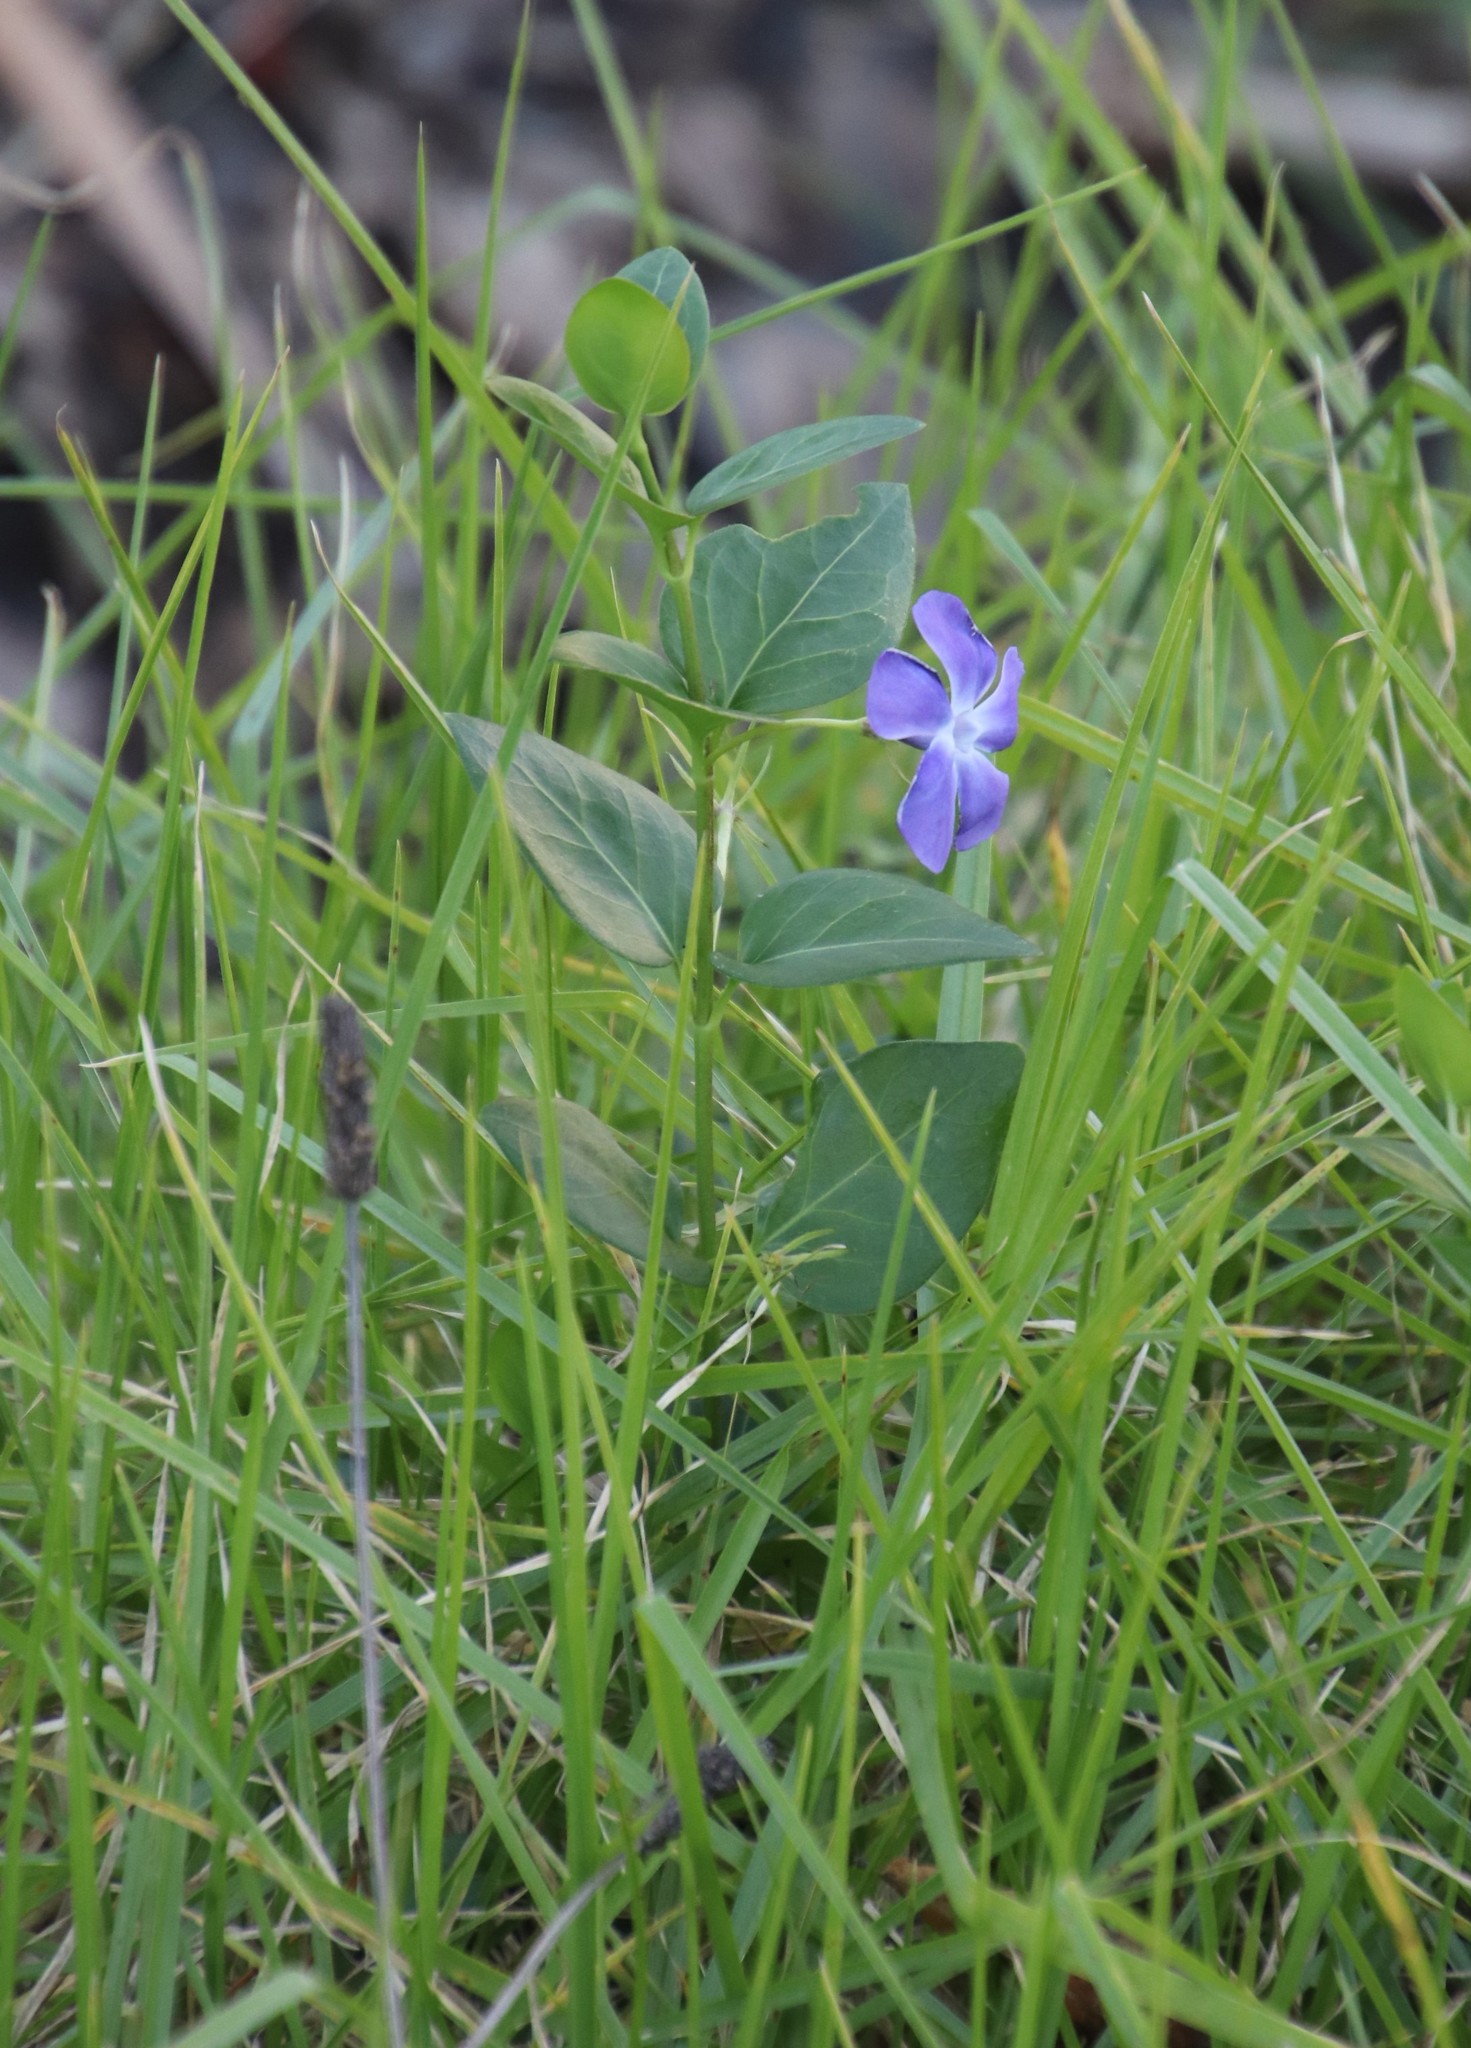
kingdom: Plantae
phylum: Tracheophyta
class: Magnoliopsida
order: Gentianales
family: Apocynaceae
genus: Vinca
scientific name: Vinca major
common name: Greater periwinkle
